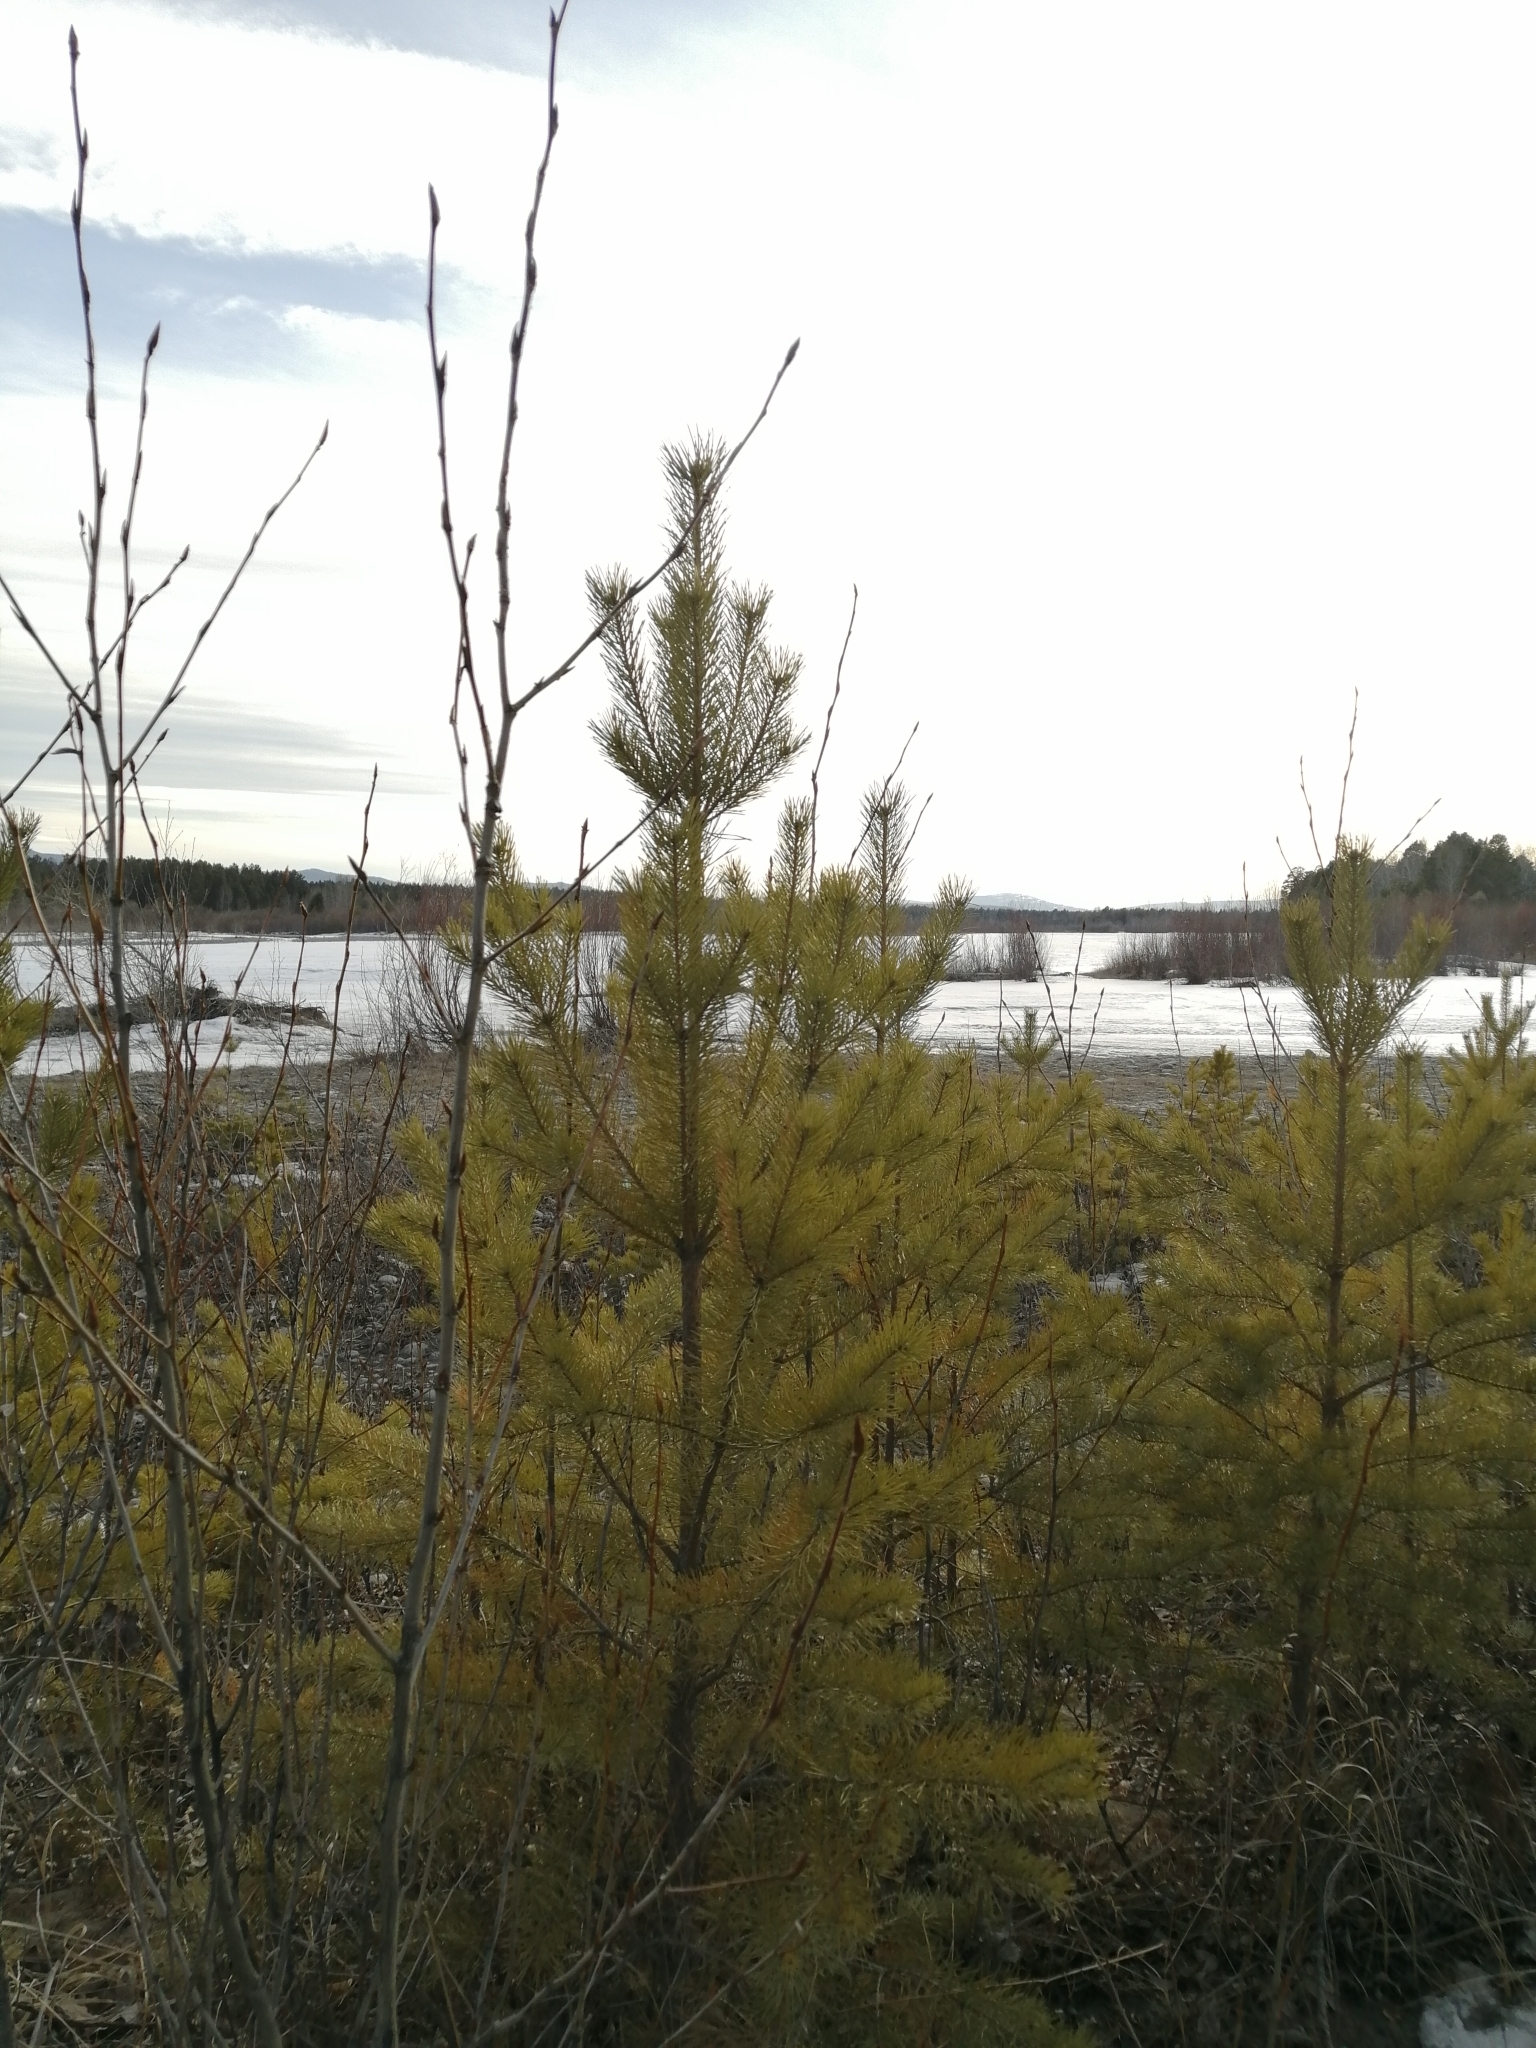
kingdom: Plantae
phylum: Tracheophyta
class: Pinopsida
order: Pinales
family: Pinaceae
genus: Pinus
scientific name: Pinus sylvestris
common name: Scots pine
